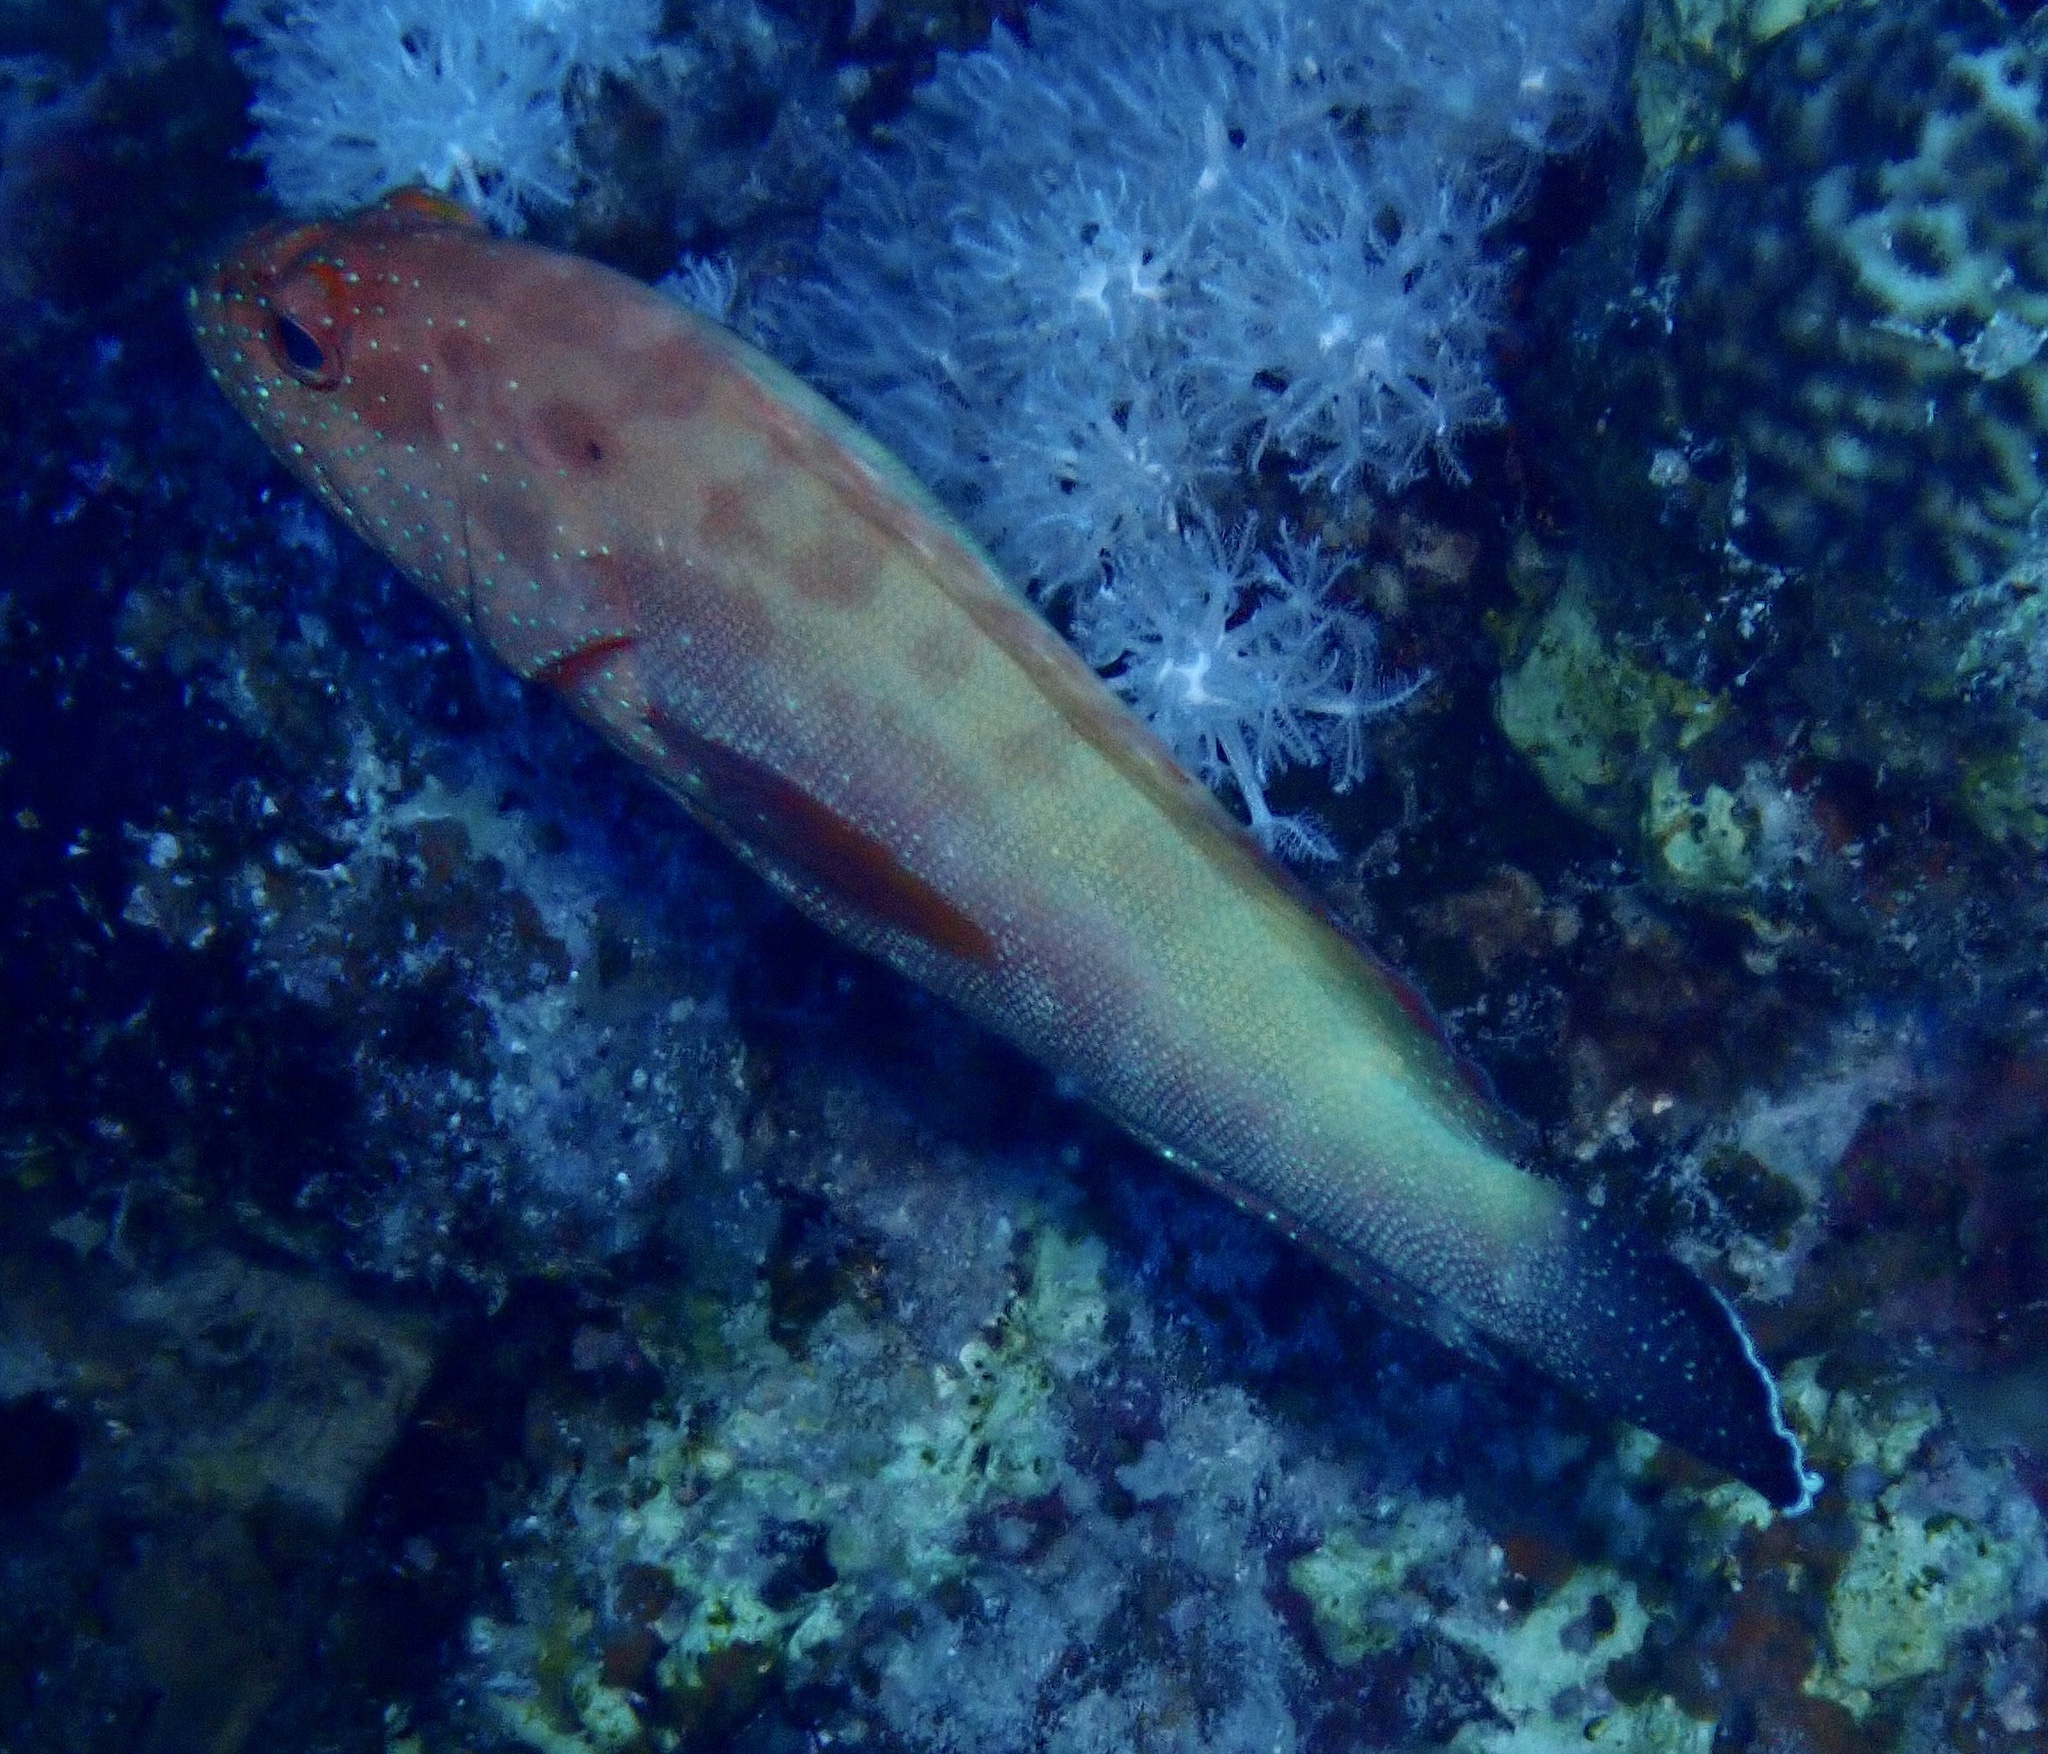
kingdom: Animalia
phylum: Chordata
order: Perciformes
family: Serranidae
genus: Cephalopholis
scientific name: Cephalopholis hemistiktos
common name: Halfspotted hind
